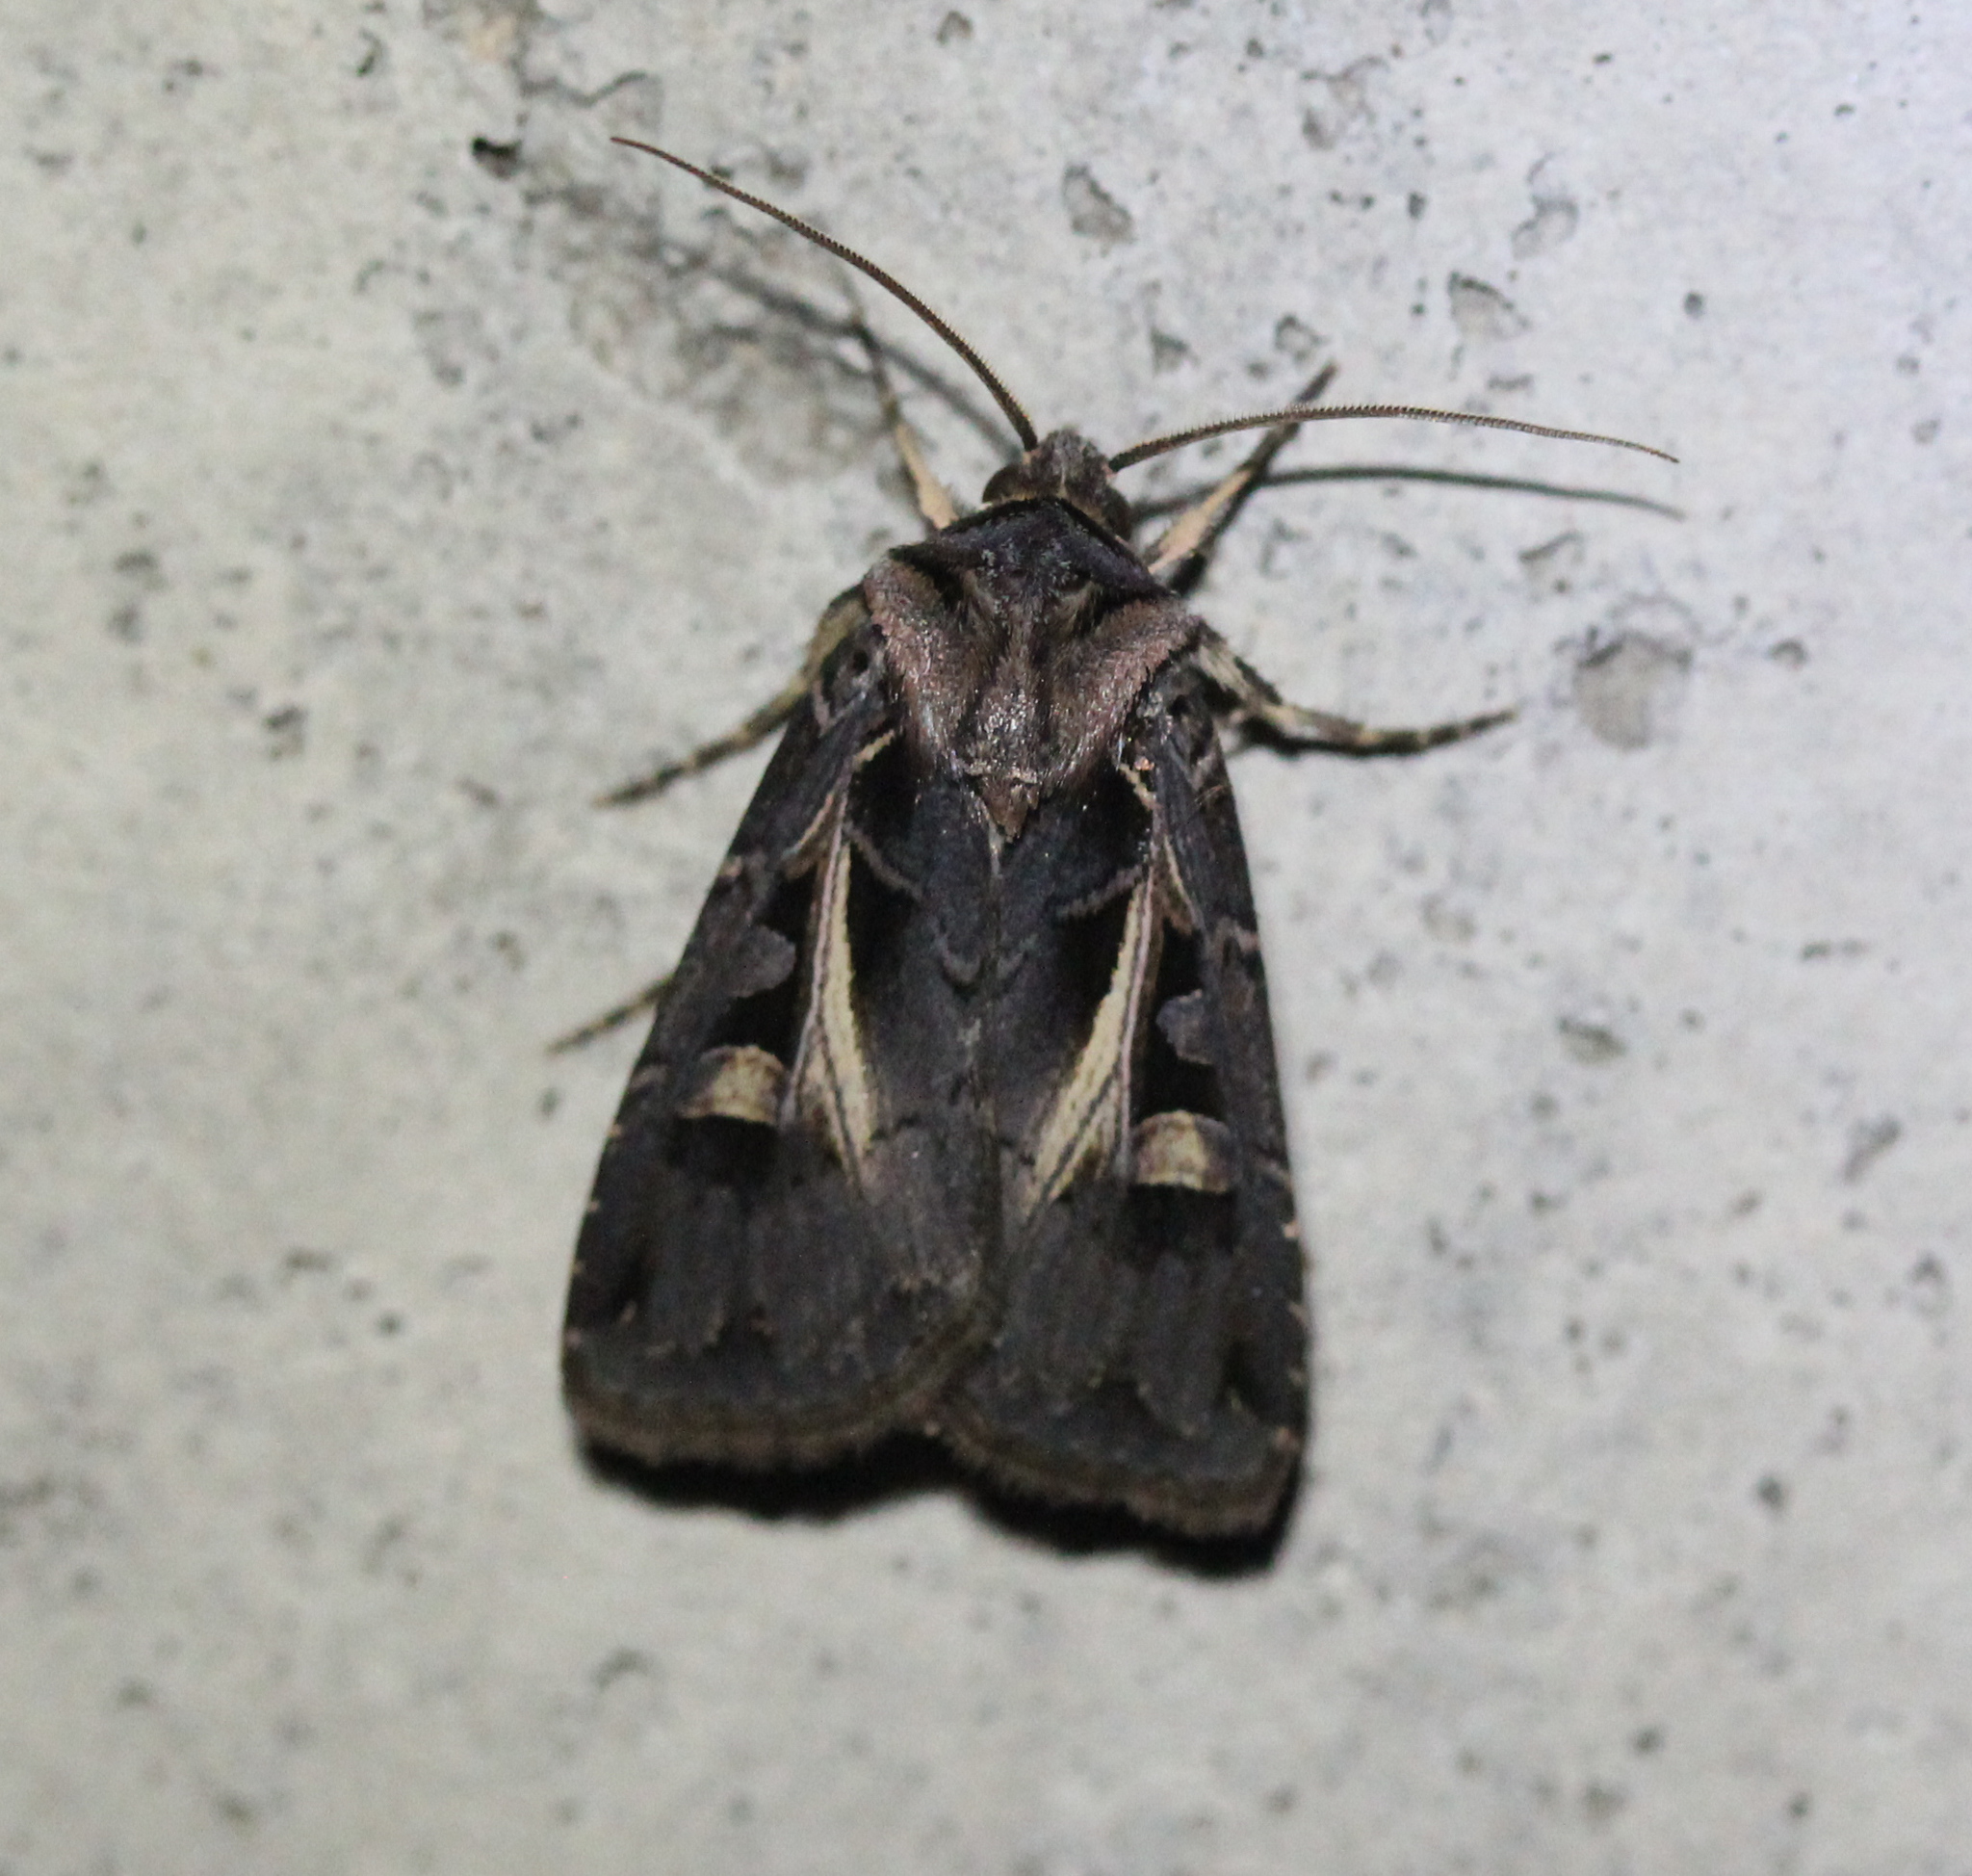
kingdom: Animalia
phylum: Arthropoda
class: Insecta
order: Lepidoptera
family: Noctuidae
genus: Feltia
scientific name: Feltia herilis
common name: Master's dart
